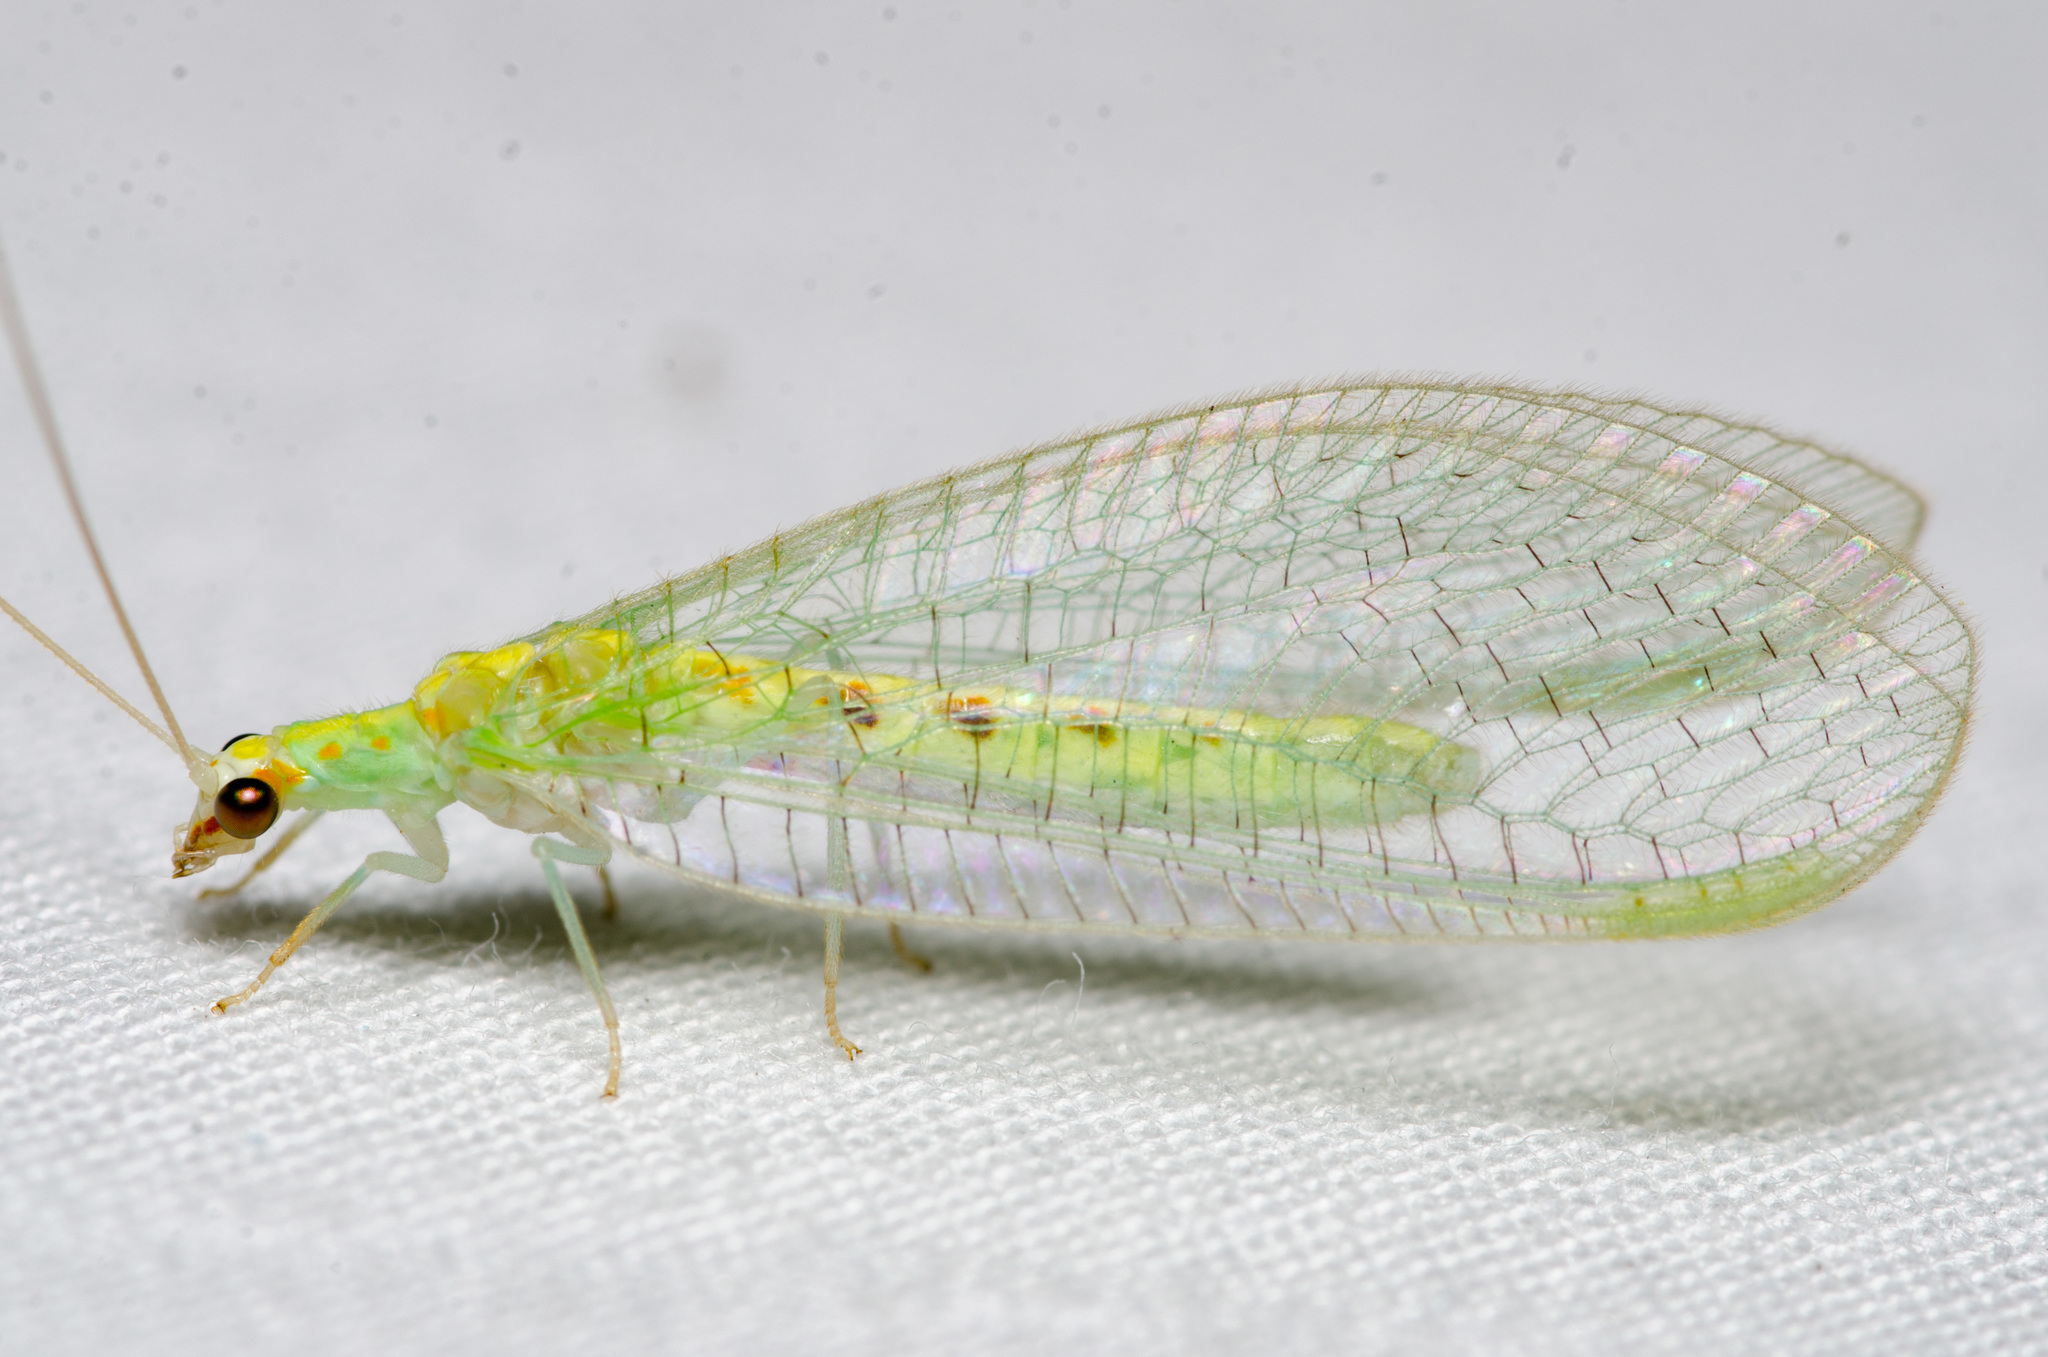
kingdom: Animalia
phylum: Arthropoda
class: Insecta
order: Neuroptera
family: Chrysopidae
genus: Chrysopa
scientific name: Chrysopa quadripunctata
